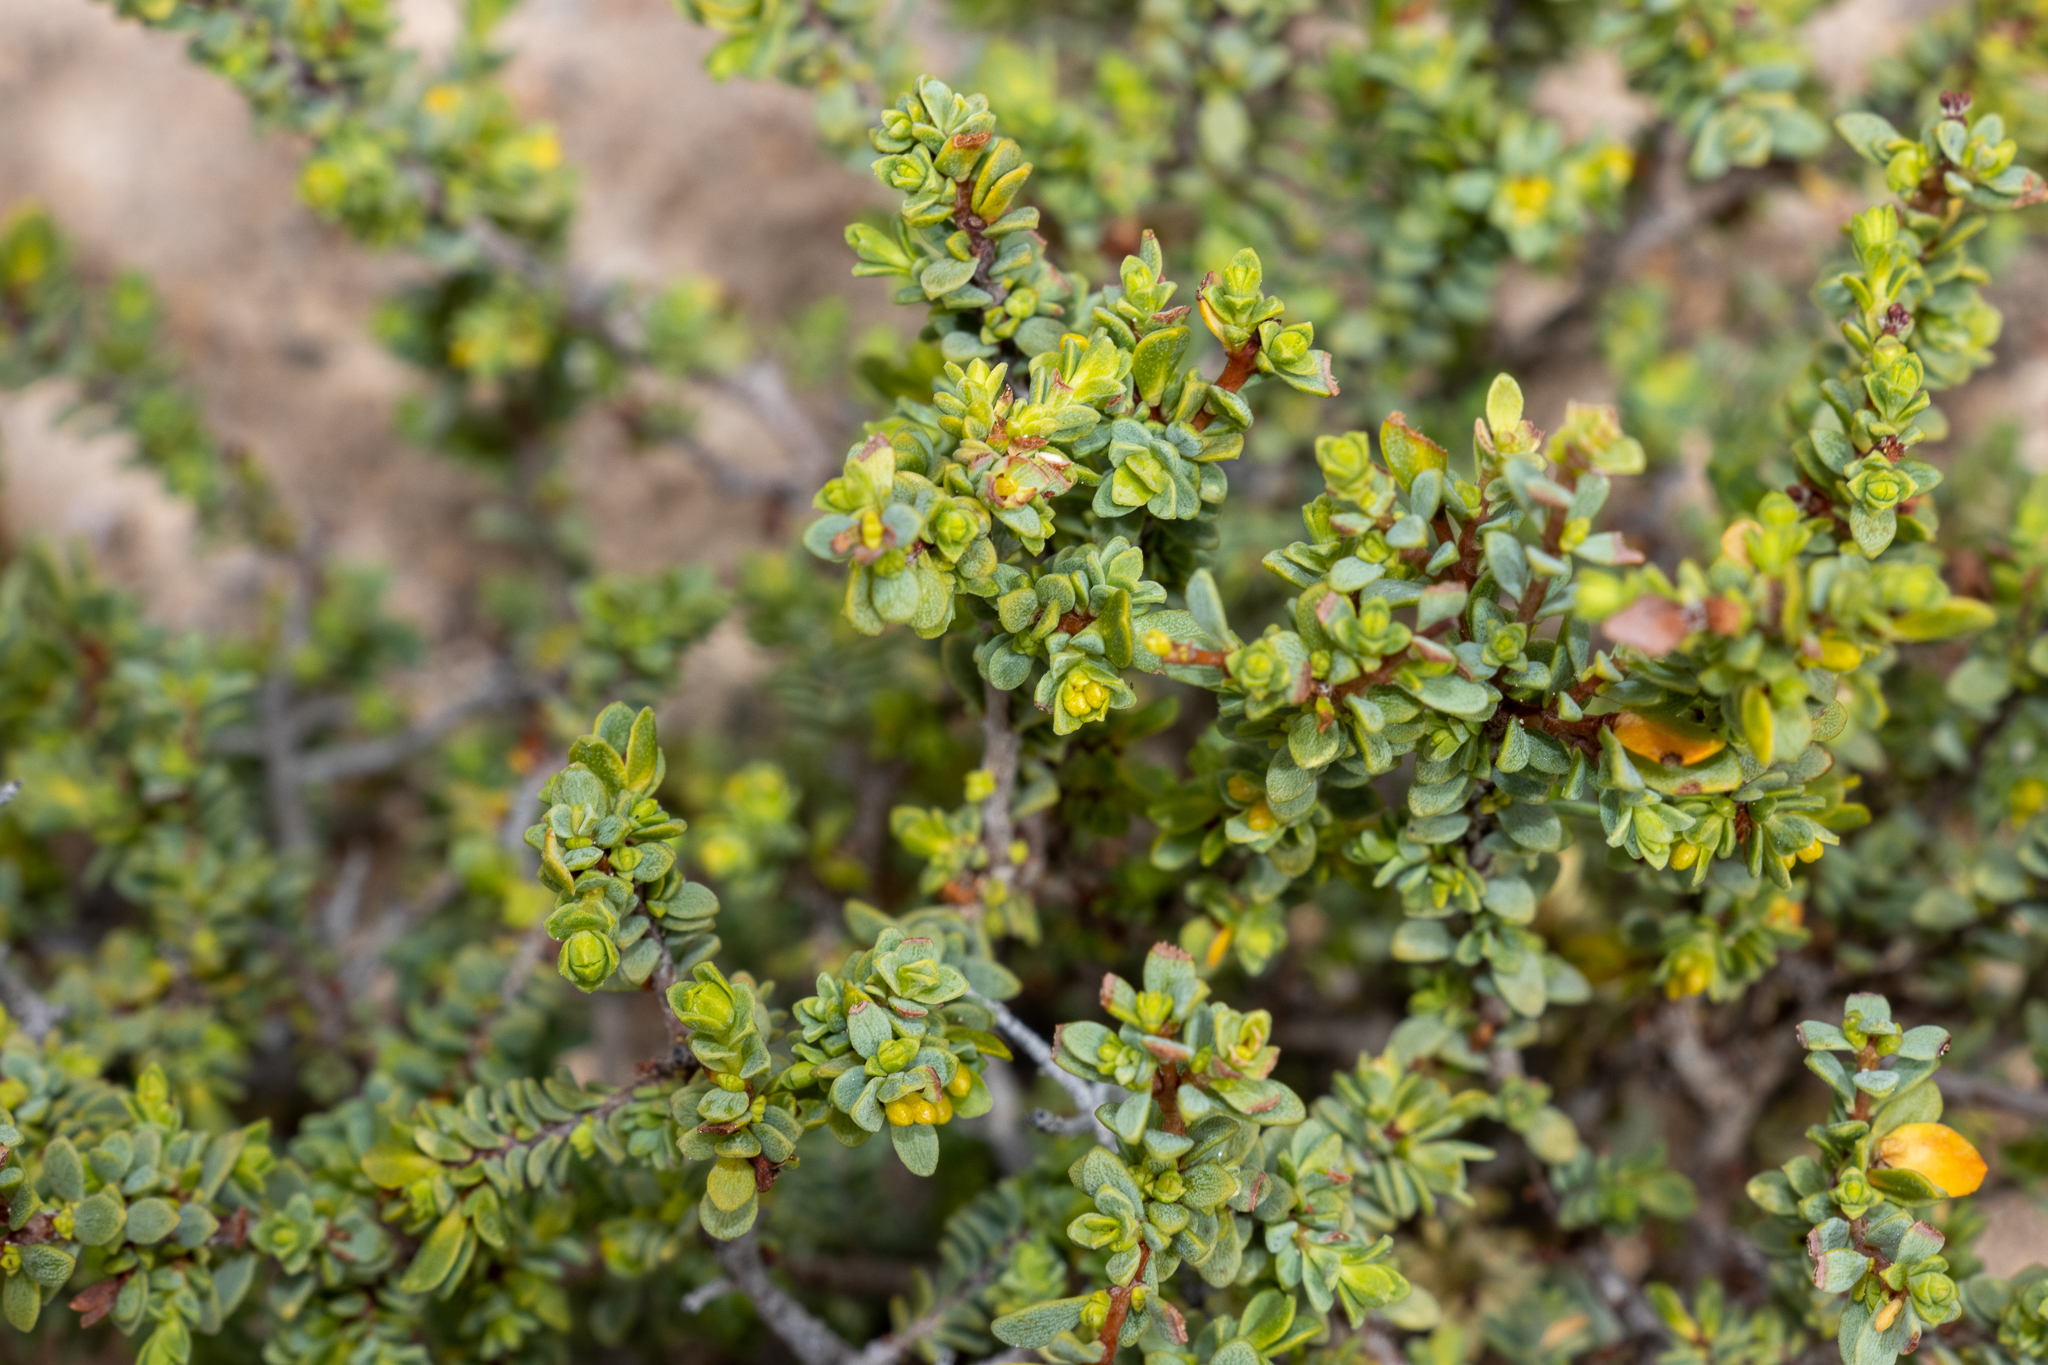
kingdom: Plantae
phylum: Tracheophyta
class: Magnoliopsida
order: Malvales
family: Thymelaeaceae
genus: Pimelea
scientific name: Pimelea serpyllifolia
